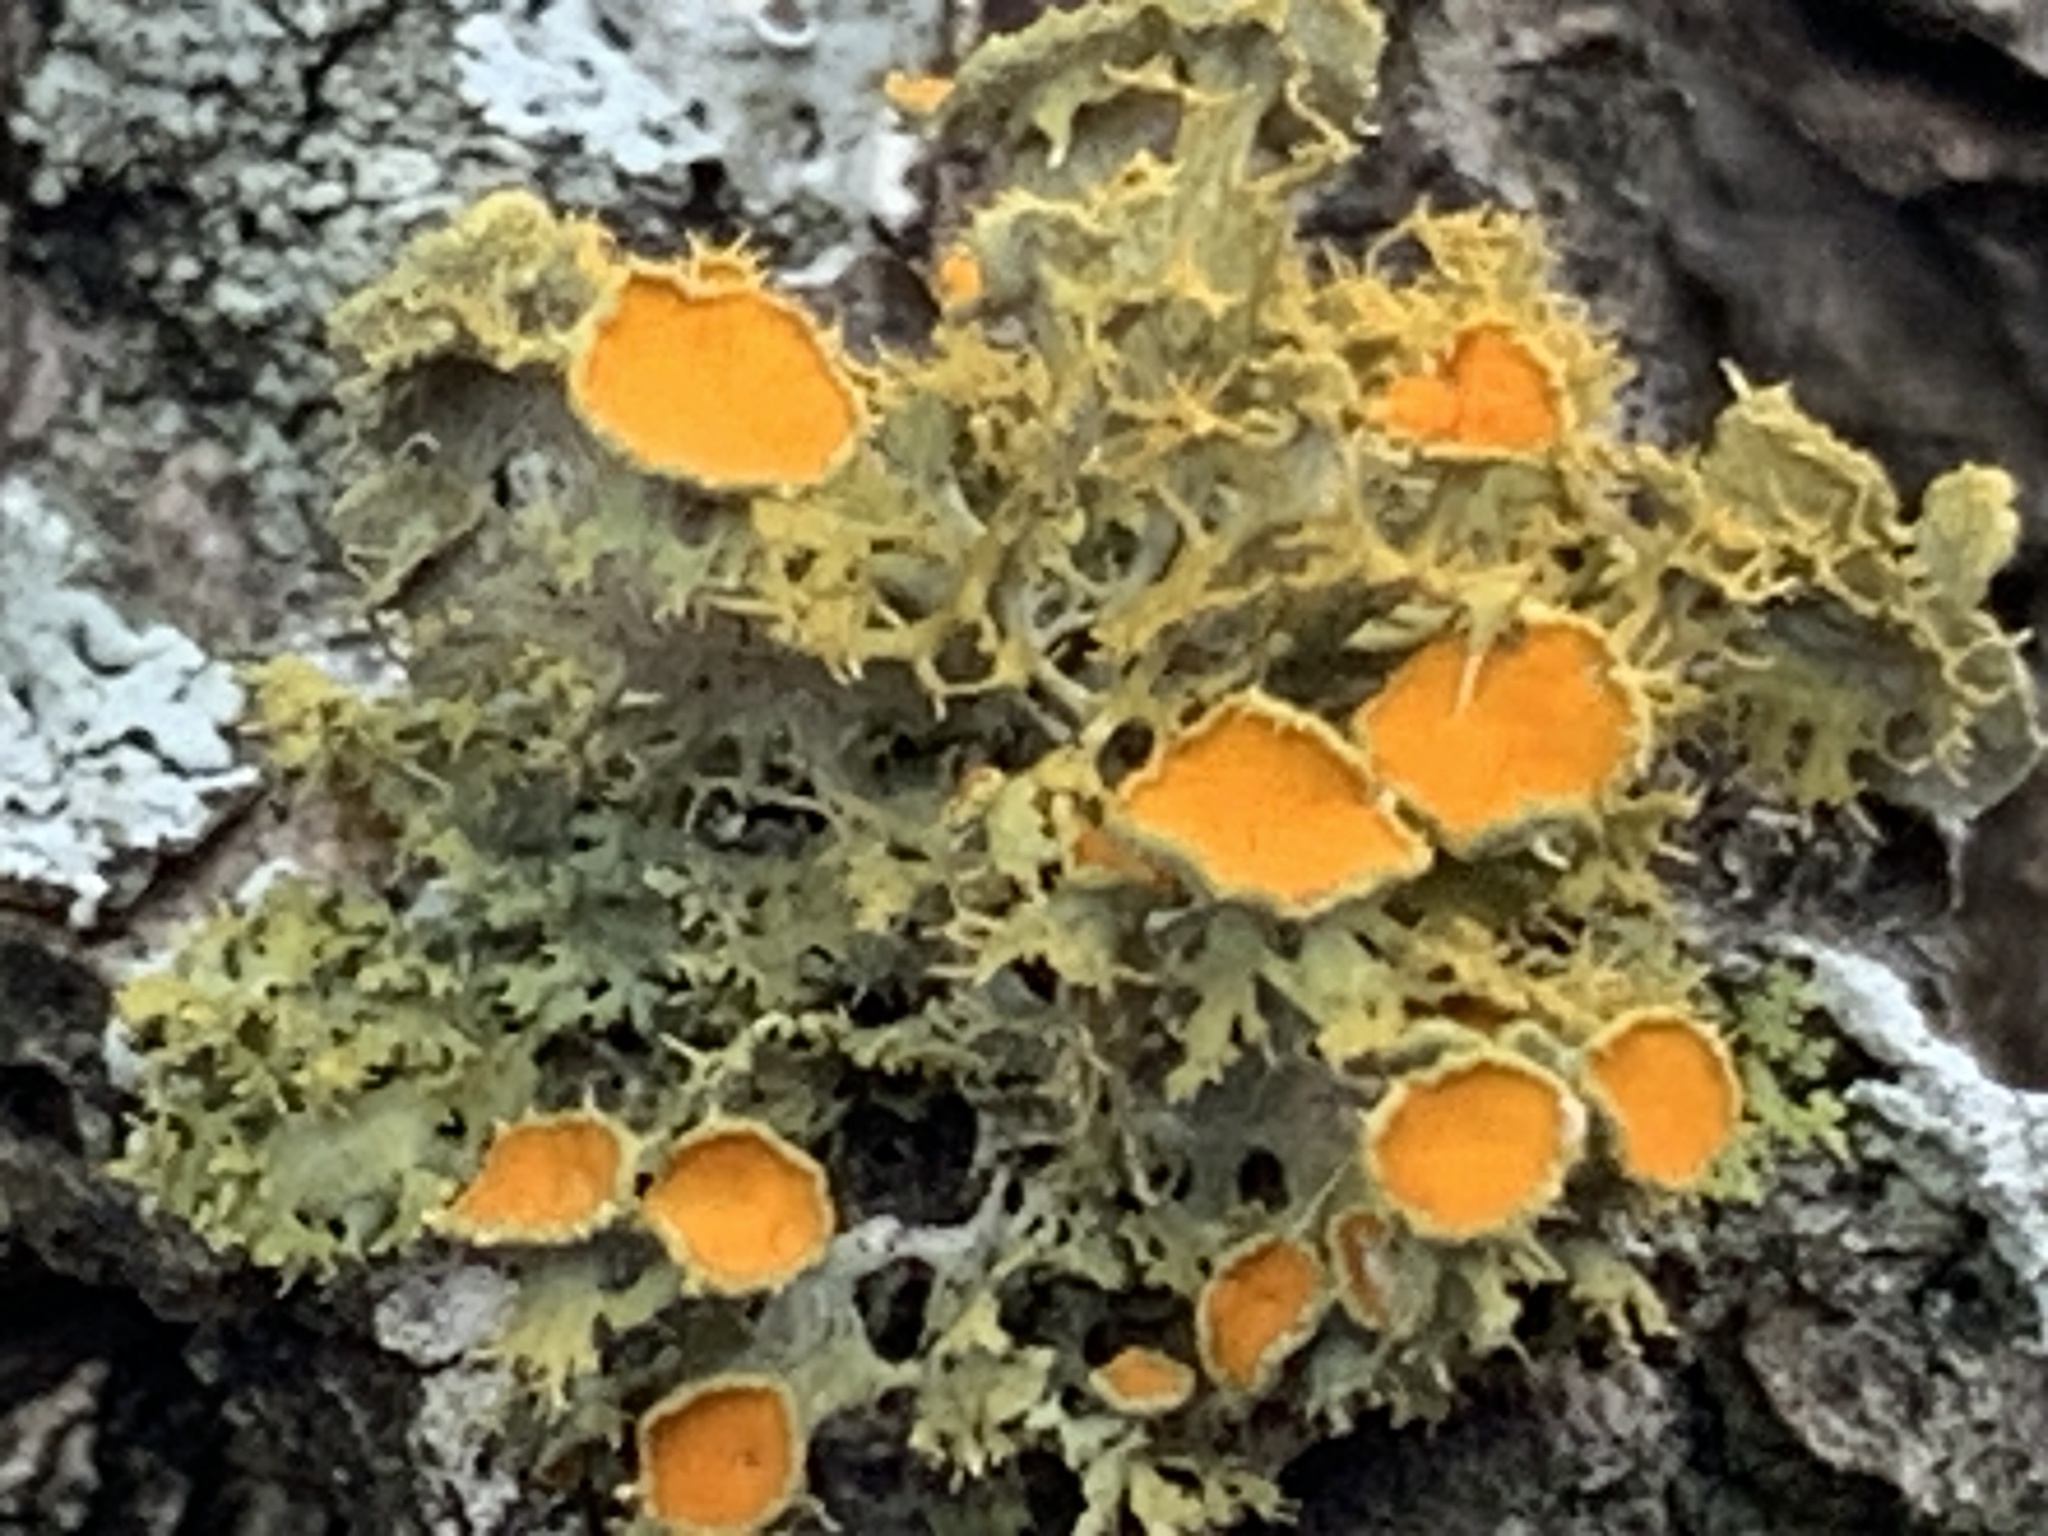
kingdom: Fungi
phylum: Ascomycota
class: Lecanoromycetes
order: Teloschistales
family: Teloschistaceae
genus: Niorma
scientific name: Niorma chrysophthalma
